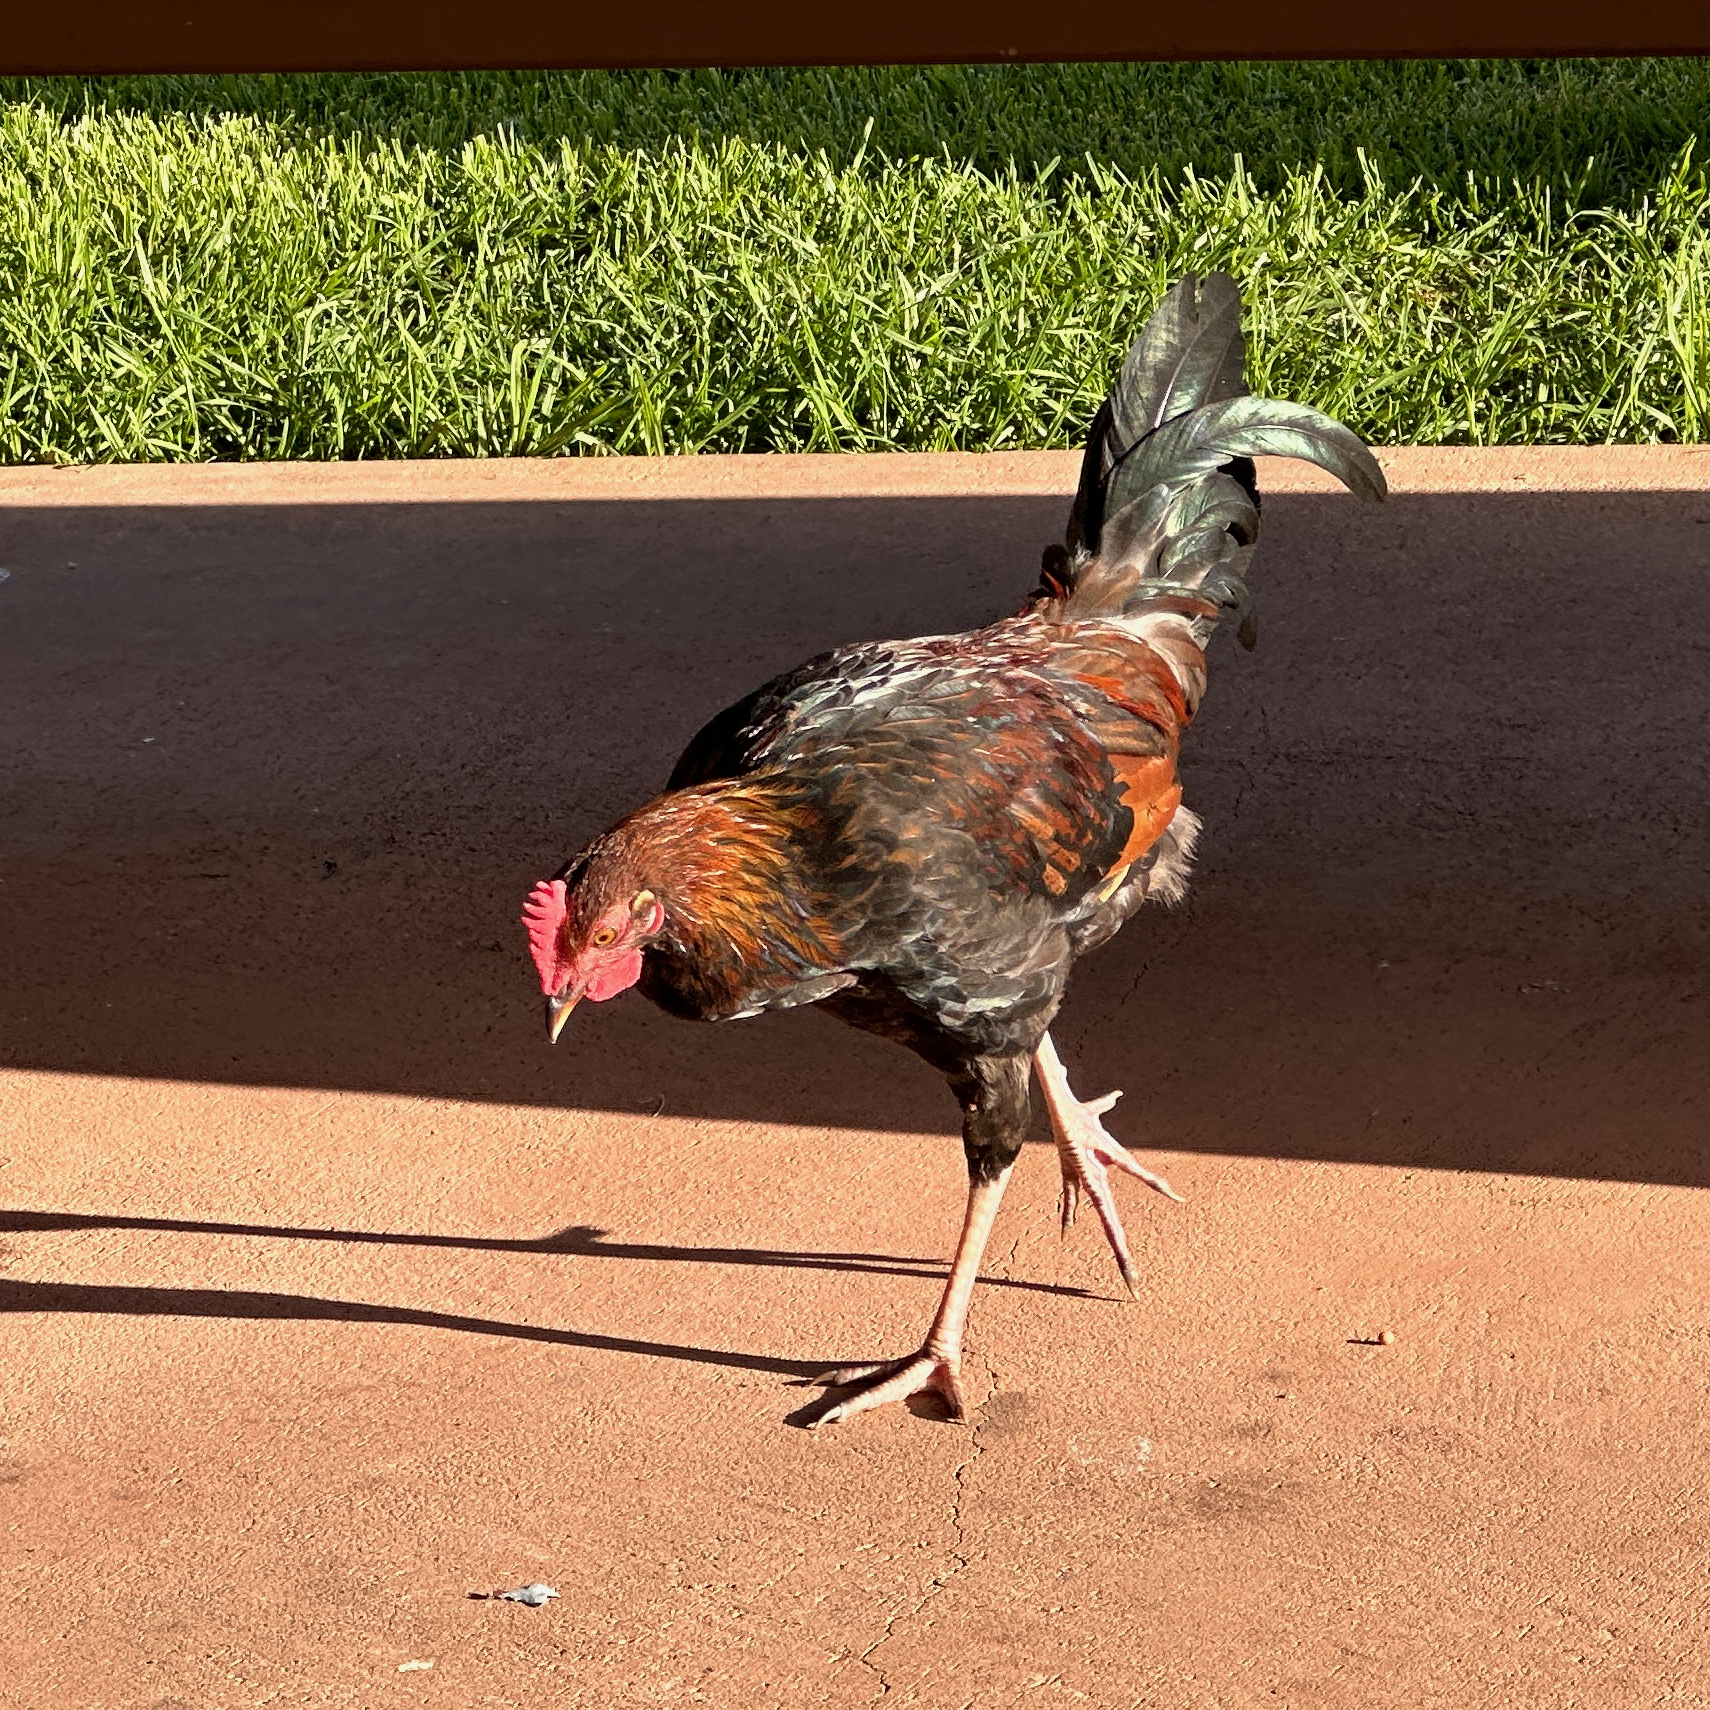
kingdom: Animalia
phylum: Chordata
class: Aves
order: Galliformes
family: Phasianidae
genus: Gallus
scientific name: Gallus gallus
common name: Red junglefowl
